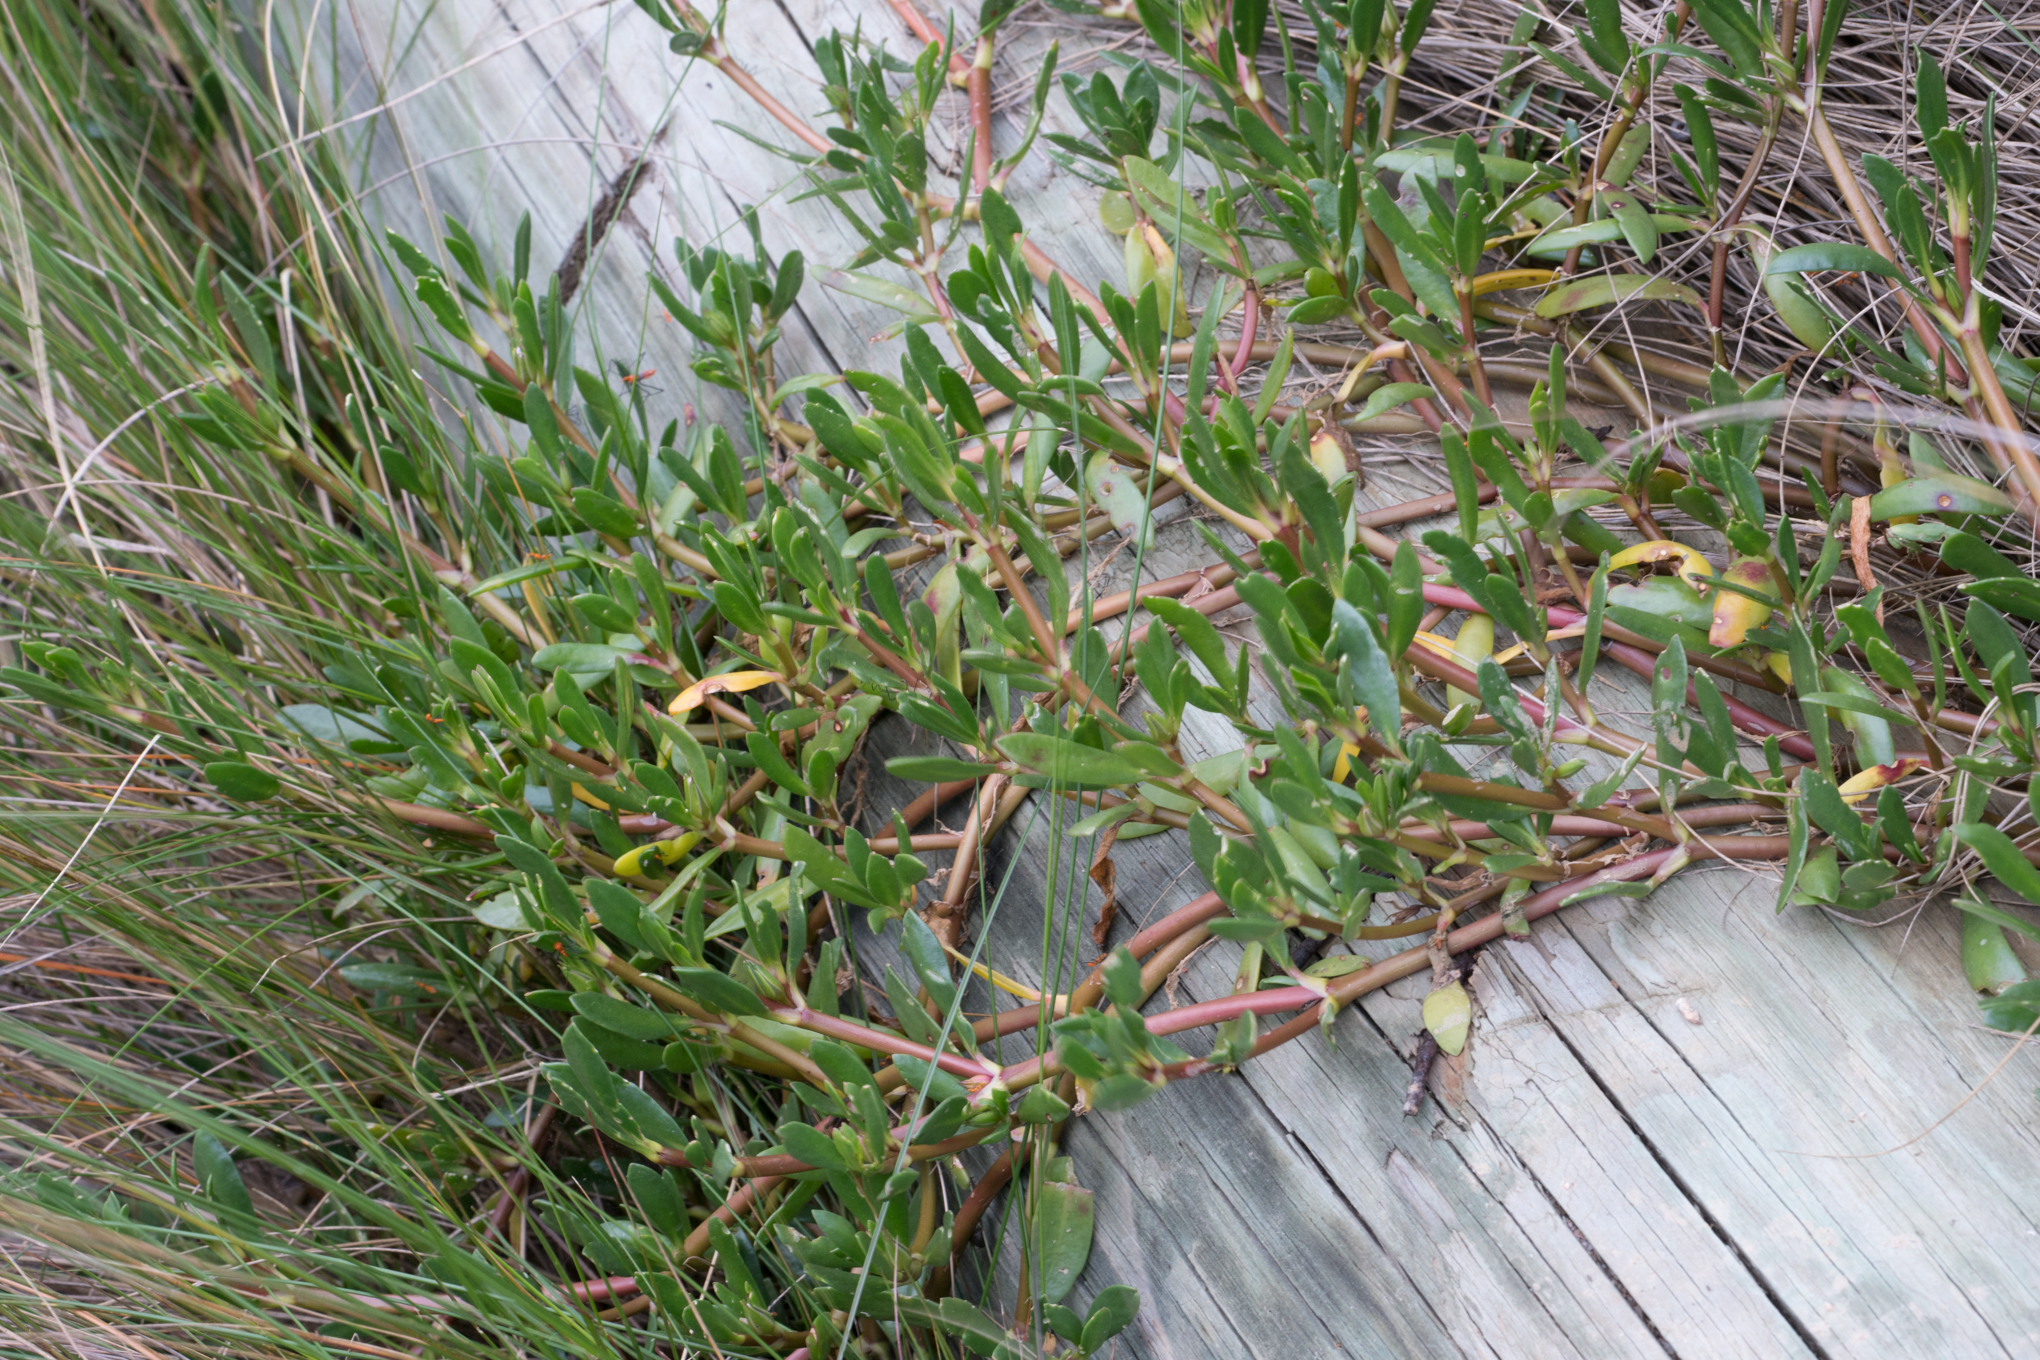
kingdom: Plantae
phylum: Tracheophyta
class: Magnoliopsida
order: Caryophyllales
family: Aizoaceae
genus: Sesuvium
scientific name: Sesuvium portulacastrum
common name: Sea-purslane
